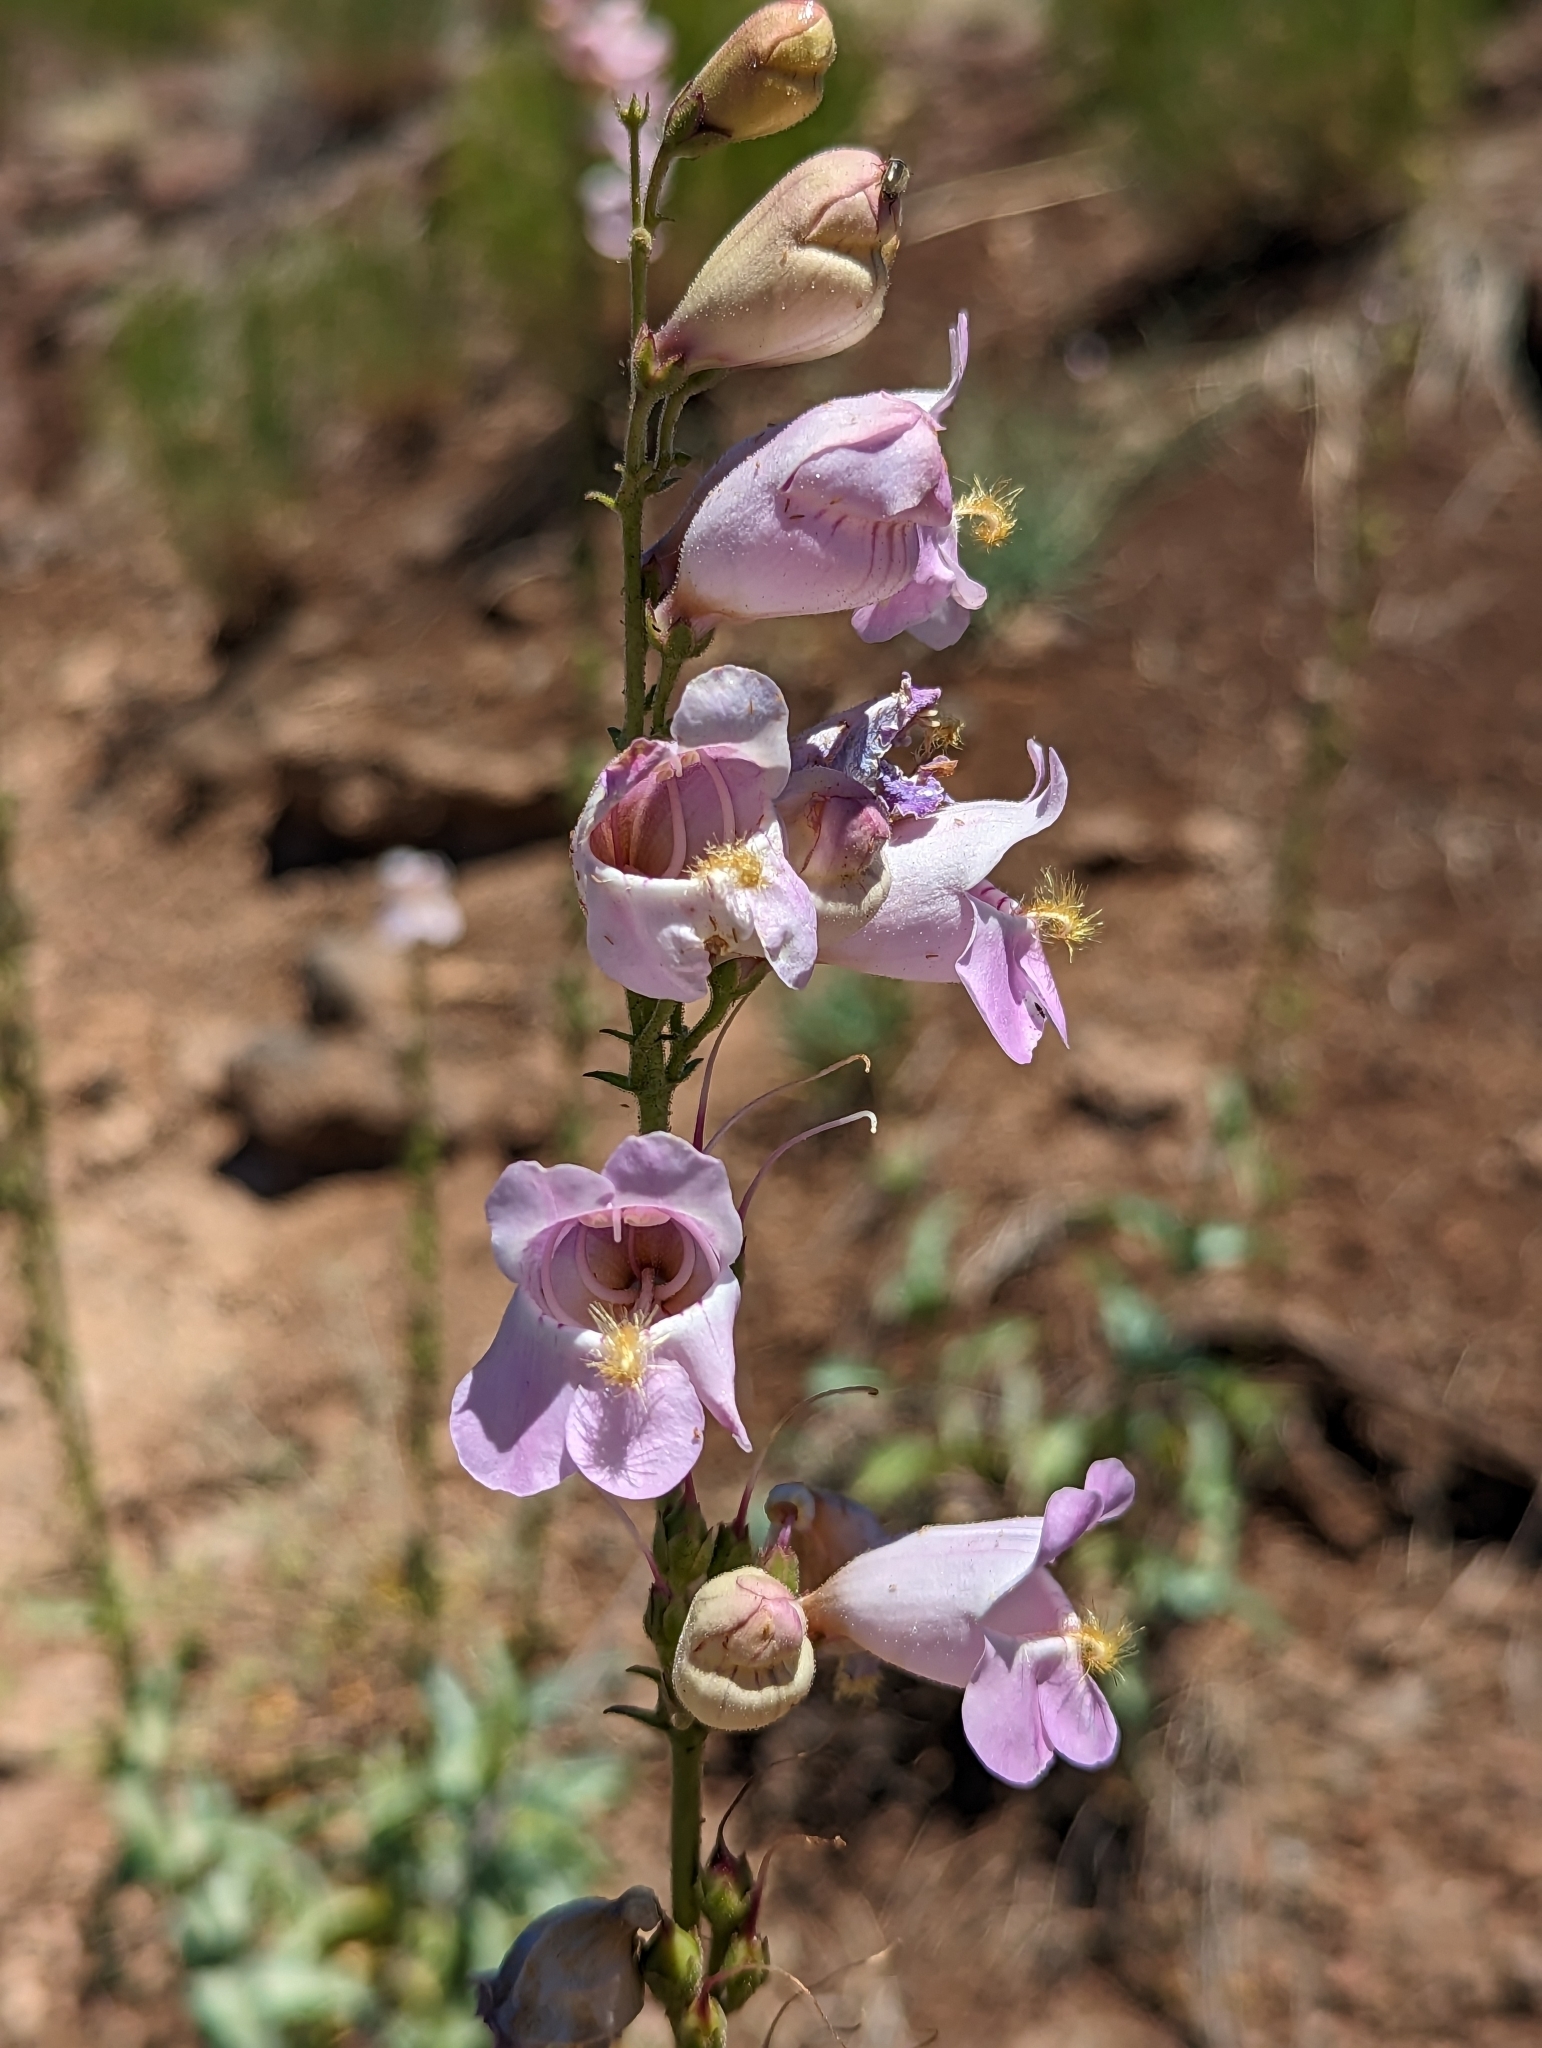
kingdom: Plantae
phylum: Tracheophyta
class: Magnoliopsida
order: Lamiales
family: Plantaginaceae
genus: Penstemon
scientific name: Penstemon palmeri
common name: Palmer penstemon
